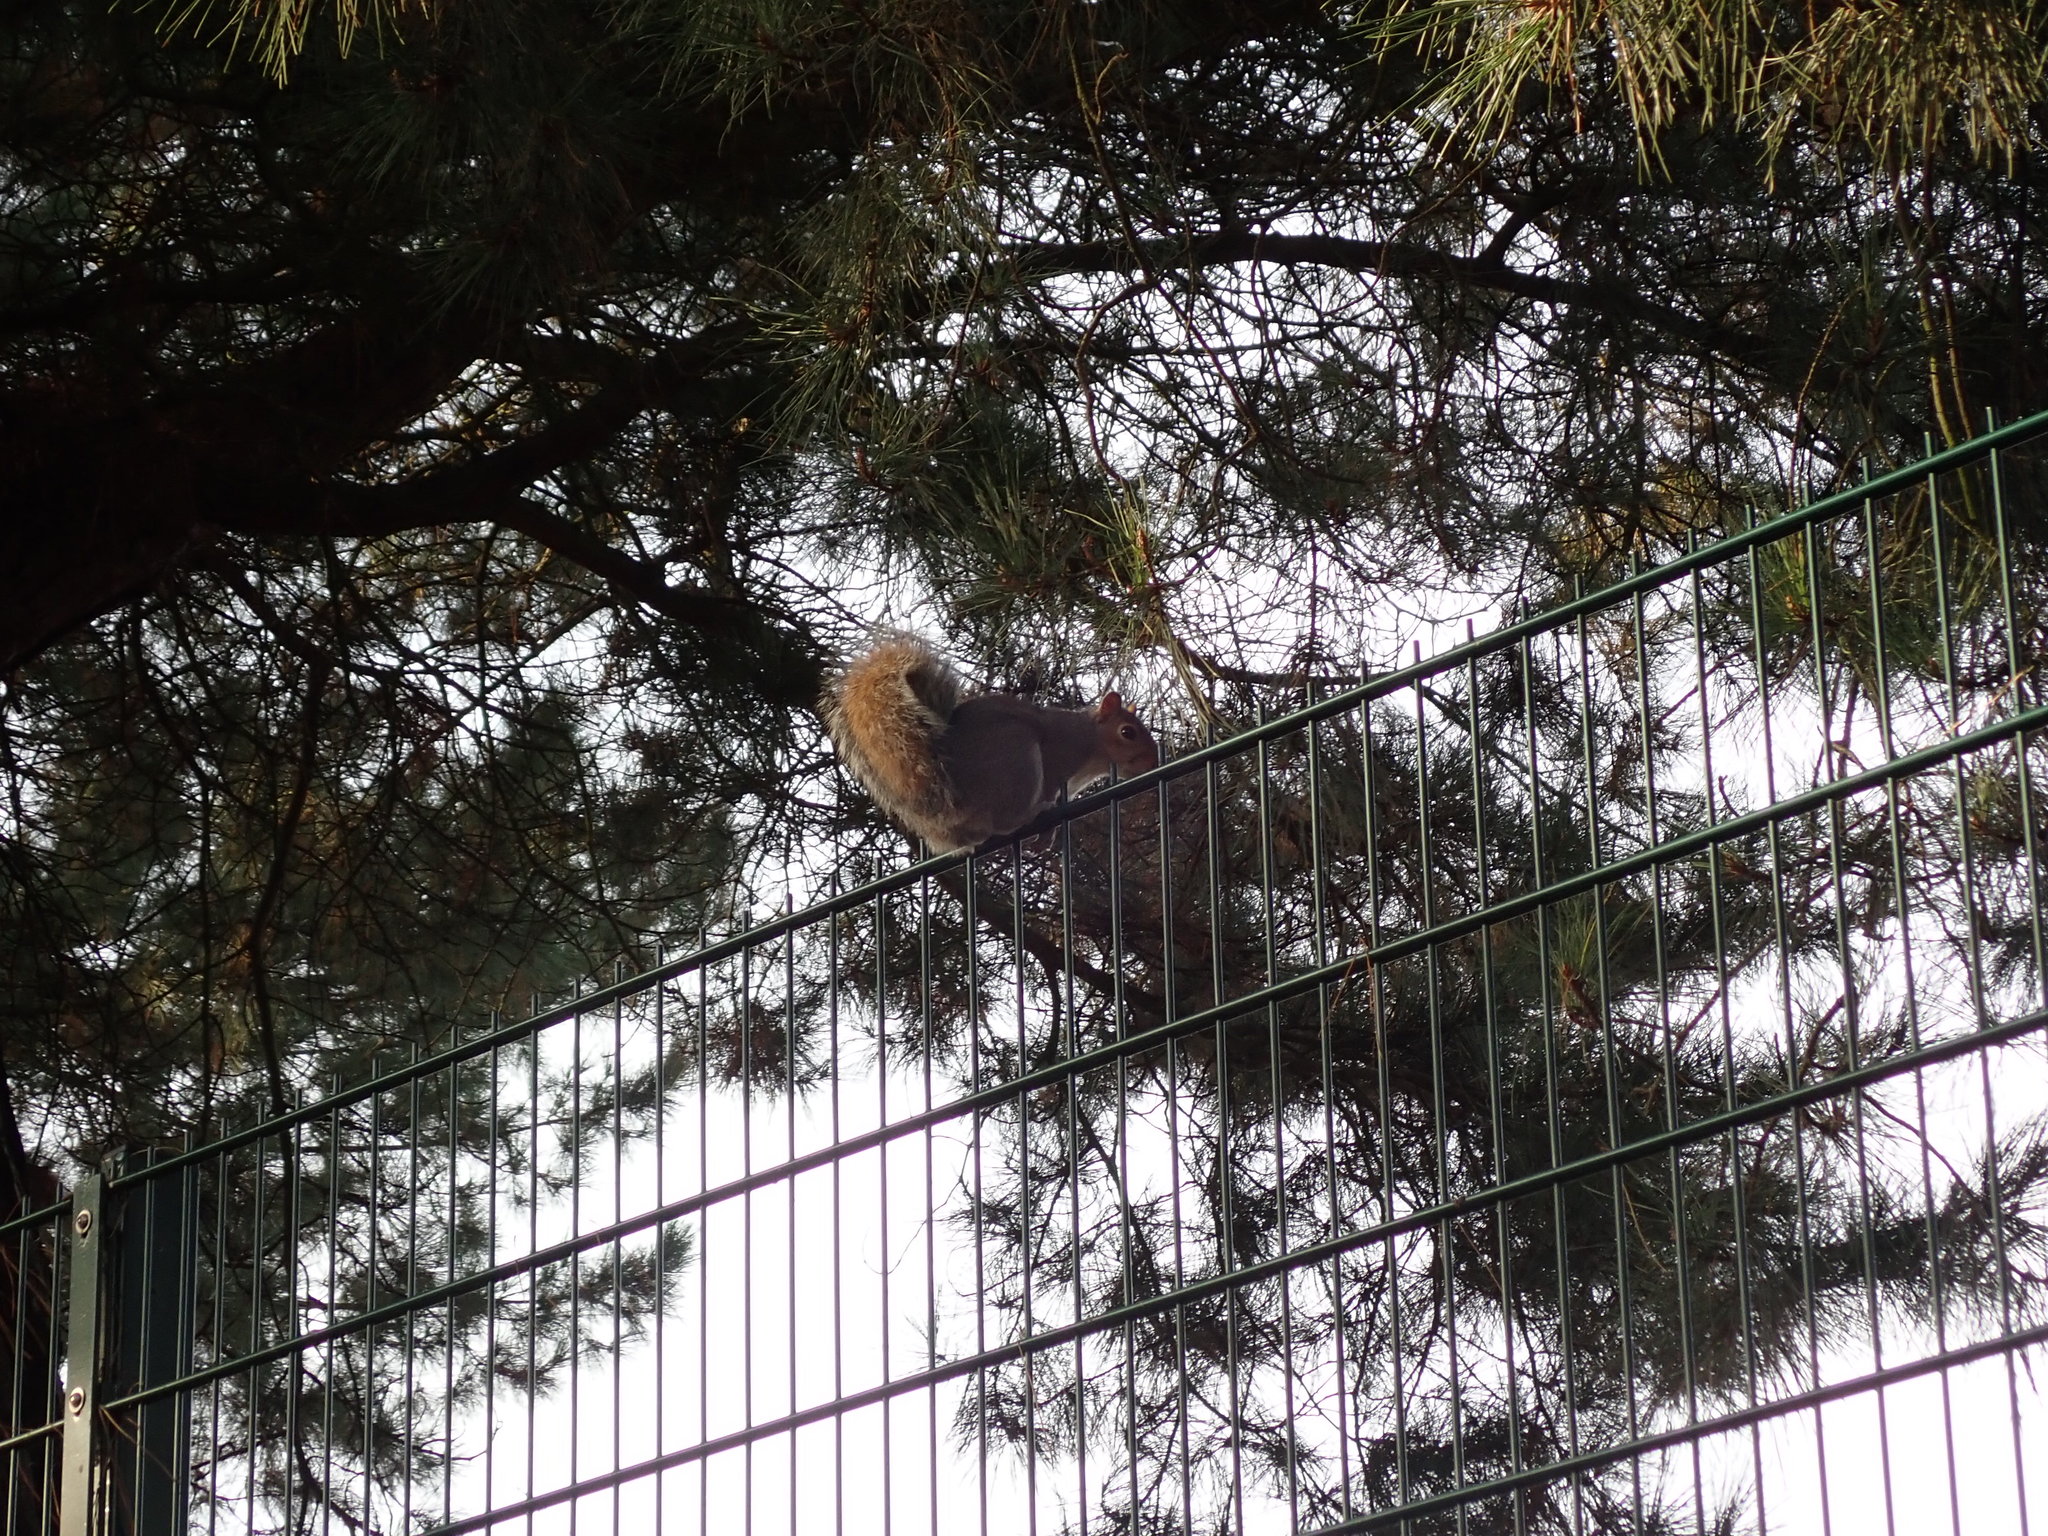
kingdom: Animalia
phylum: Chordata
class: Mammalia
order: Rodentia
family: Sciuridae
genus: Sciurus
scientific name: Sciurus carolinensis
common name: Eastern gray squirrel
